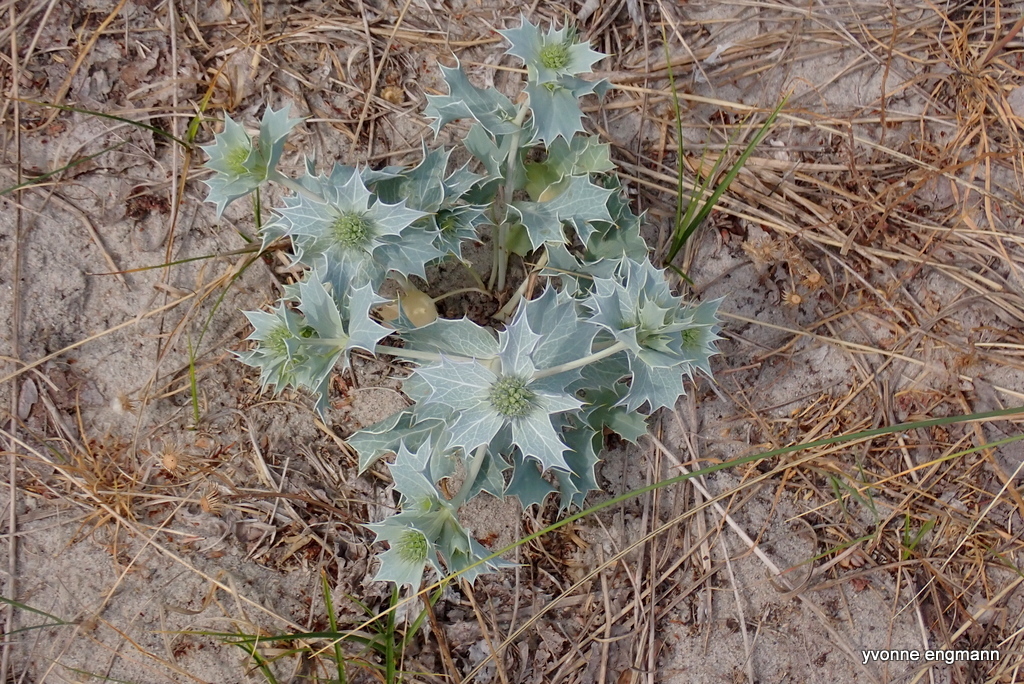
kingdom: Plantae
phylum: Tracheophyta
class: Magnoliopsida
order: Apiales
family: Apiaceae
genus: Eryngium
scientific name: Eryngium maritimum
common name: Sea-holly
